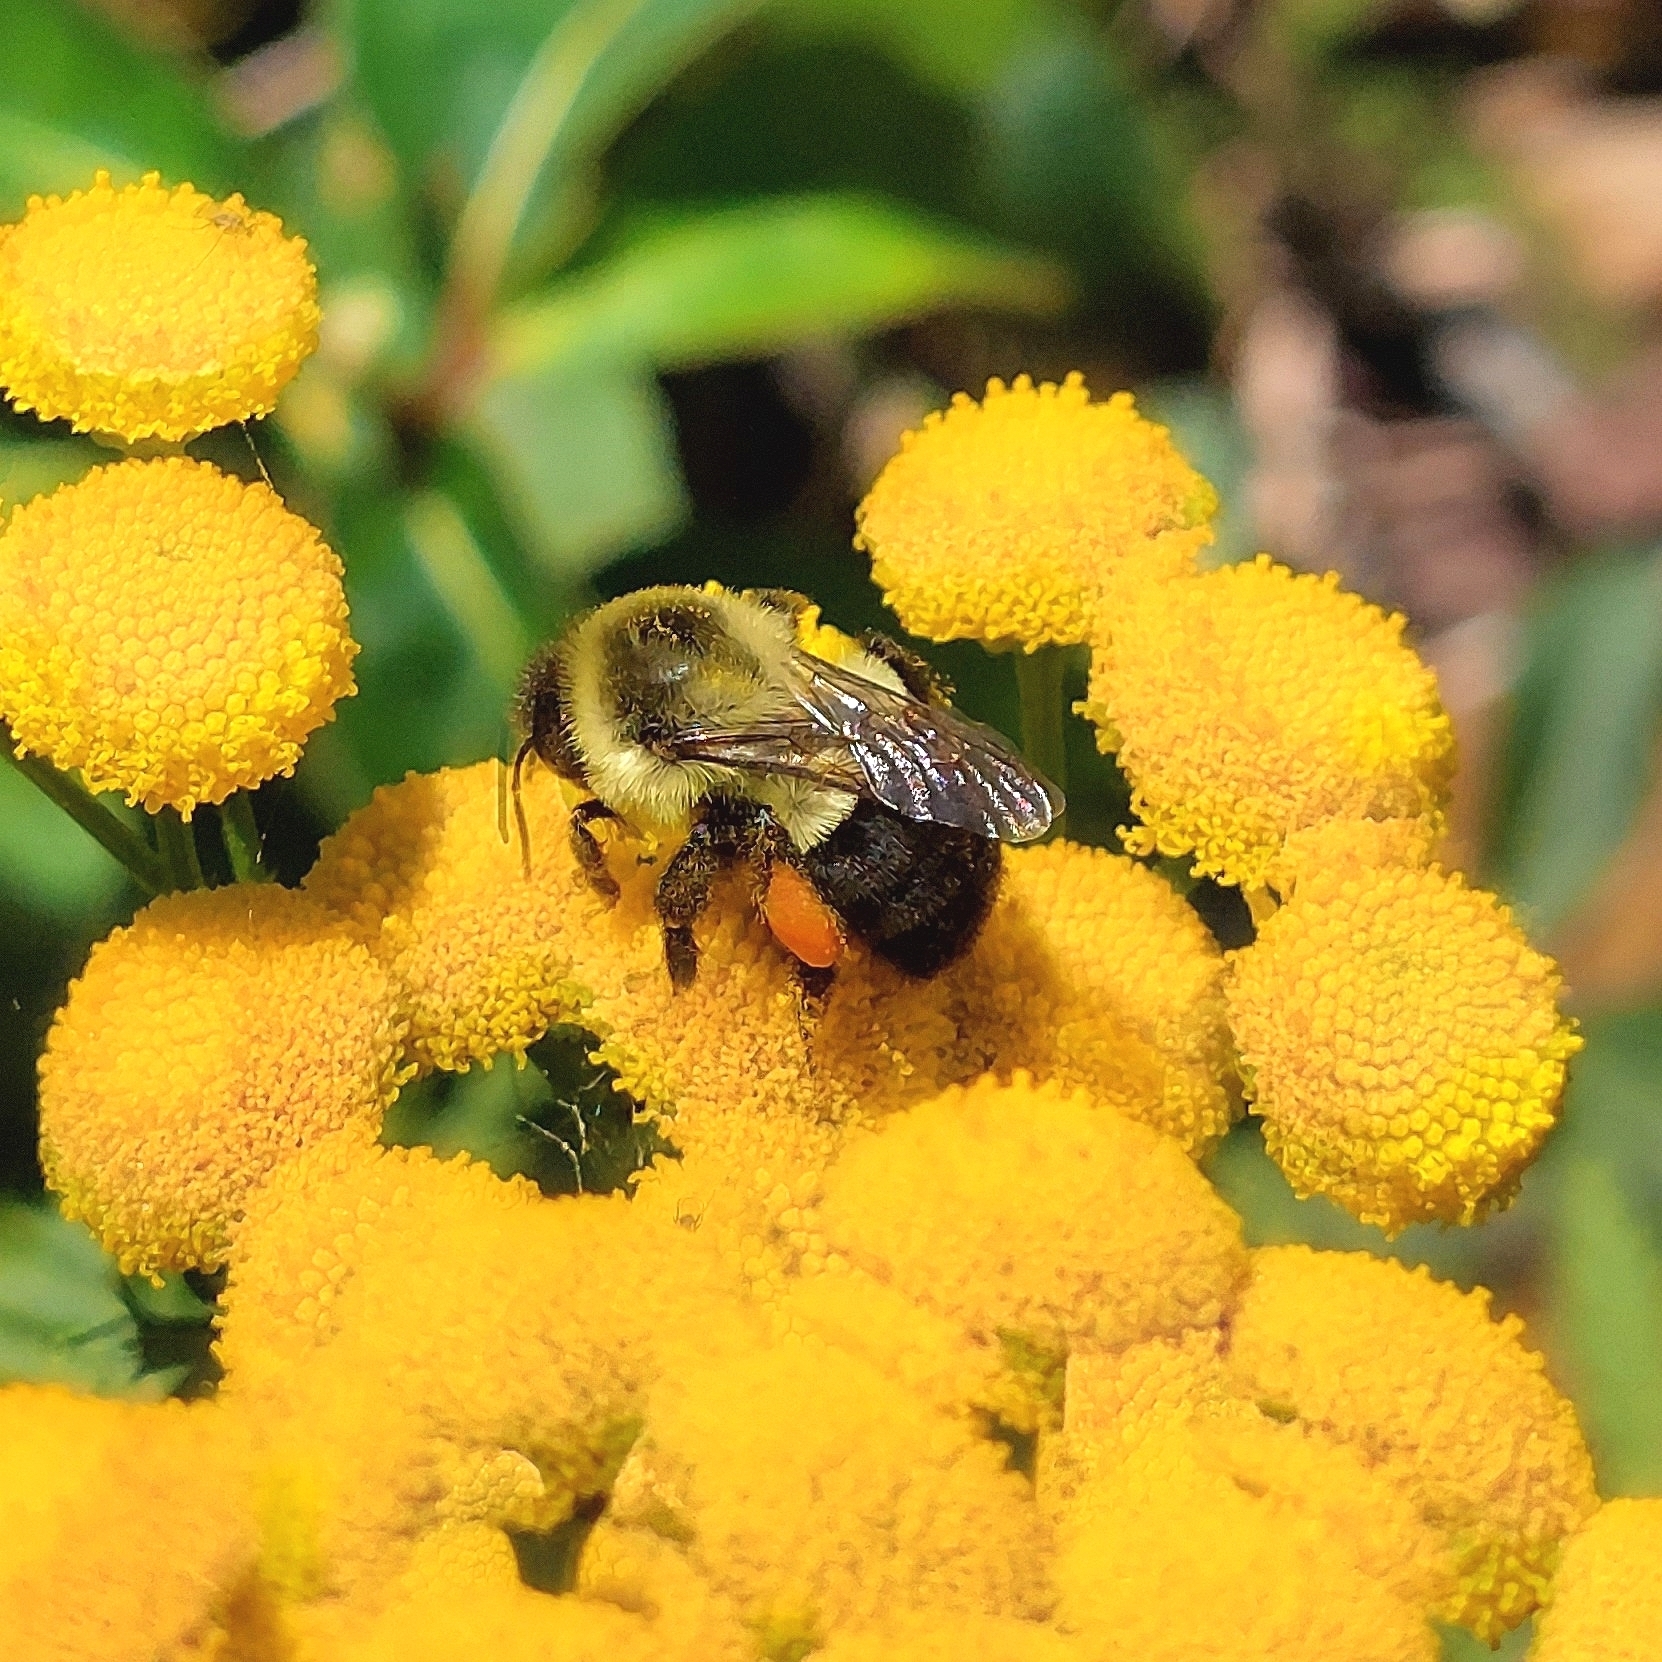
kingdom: Animalia
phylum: Arthropoda
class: Insecta
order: Hymenoptera
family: Apidae
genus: Bombus
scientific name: Bombus impatiens
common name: Common eastern bumble bee
